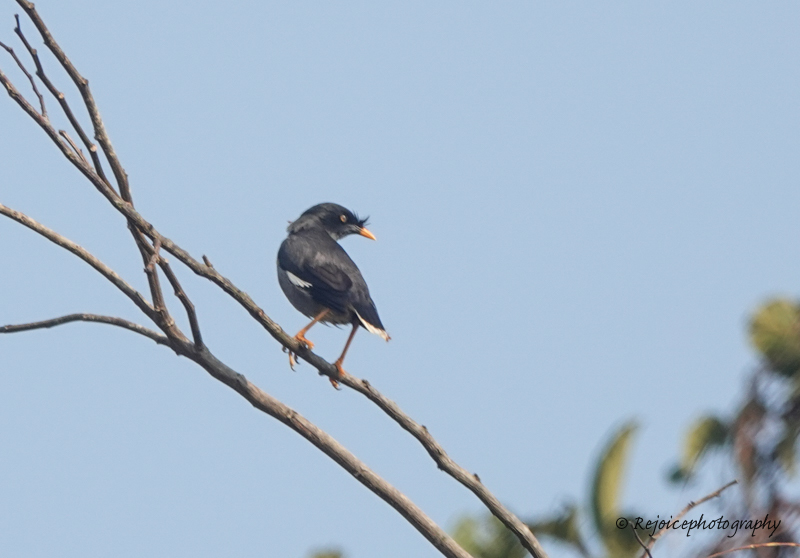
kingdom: Animalia
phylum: Chordata
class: Aves
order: Passeriformes
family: Sturnidae
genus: Acridotheres
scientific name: Acridotheres fuscus
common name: Jungle myna
